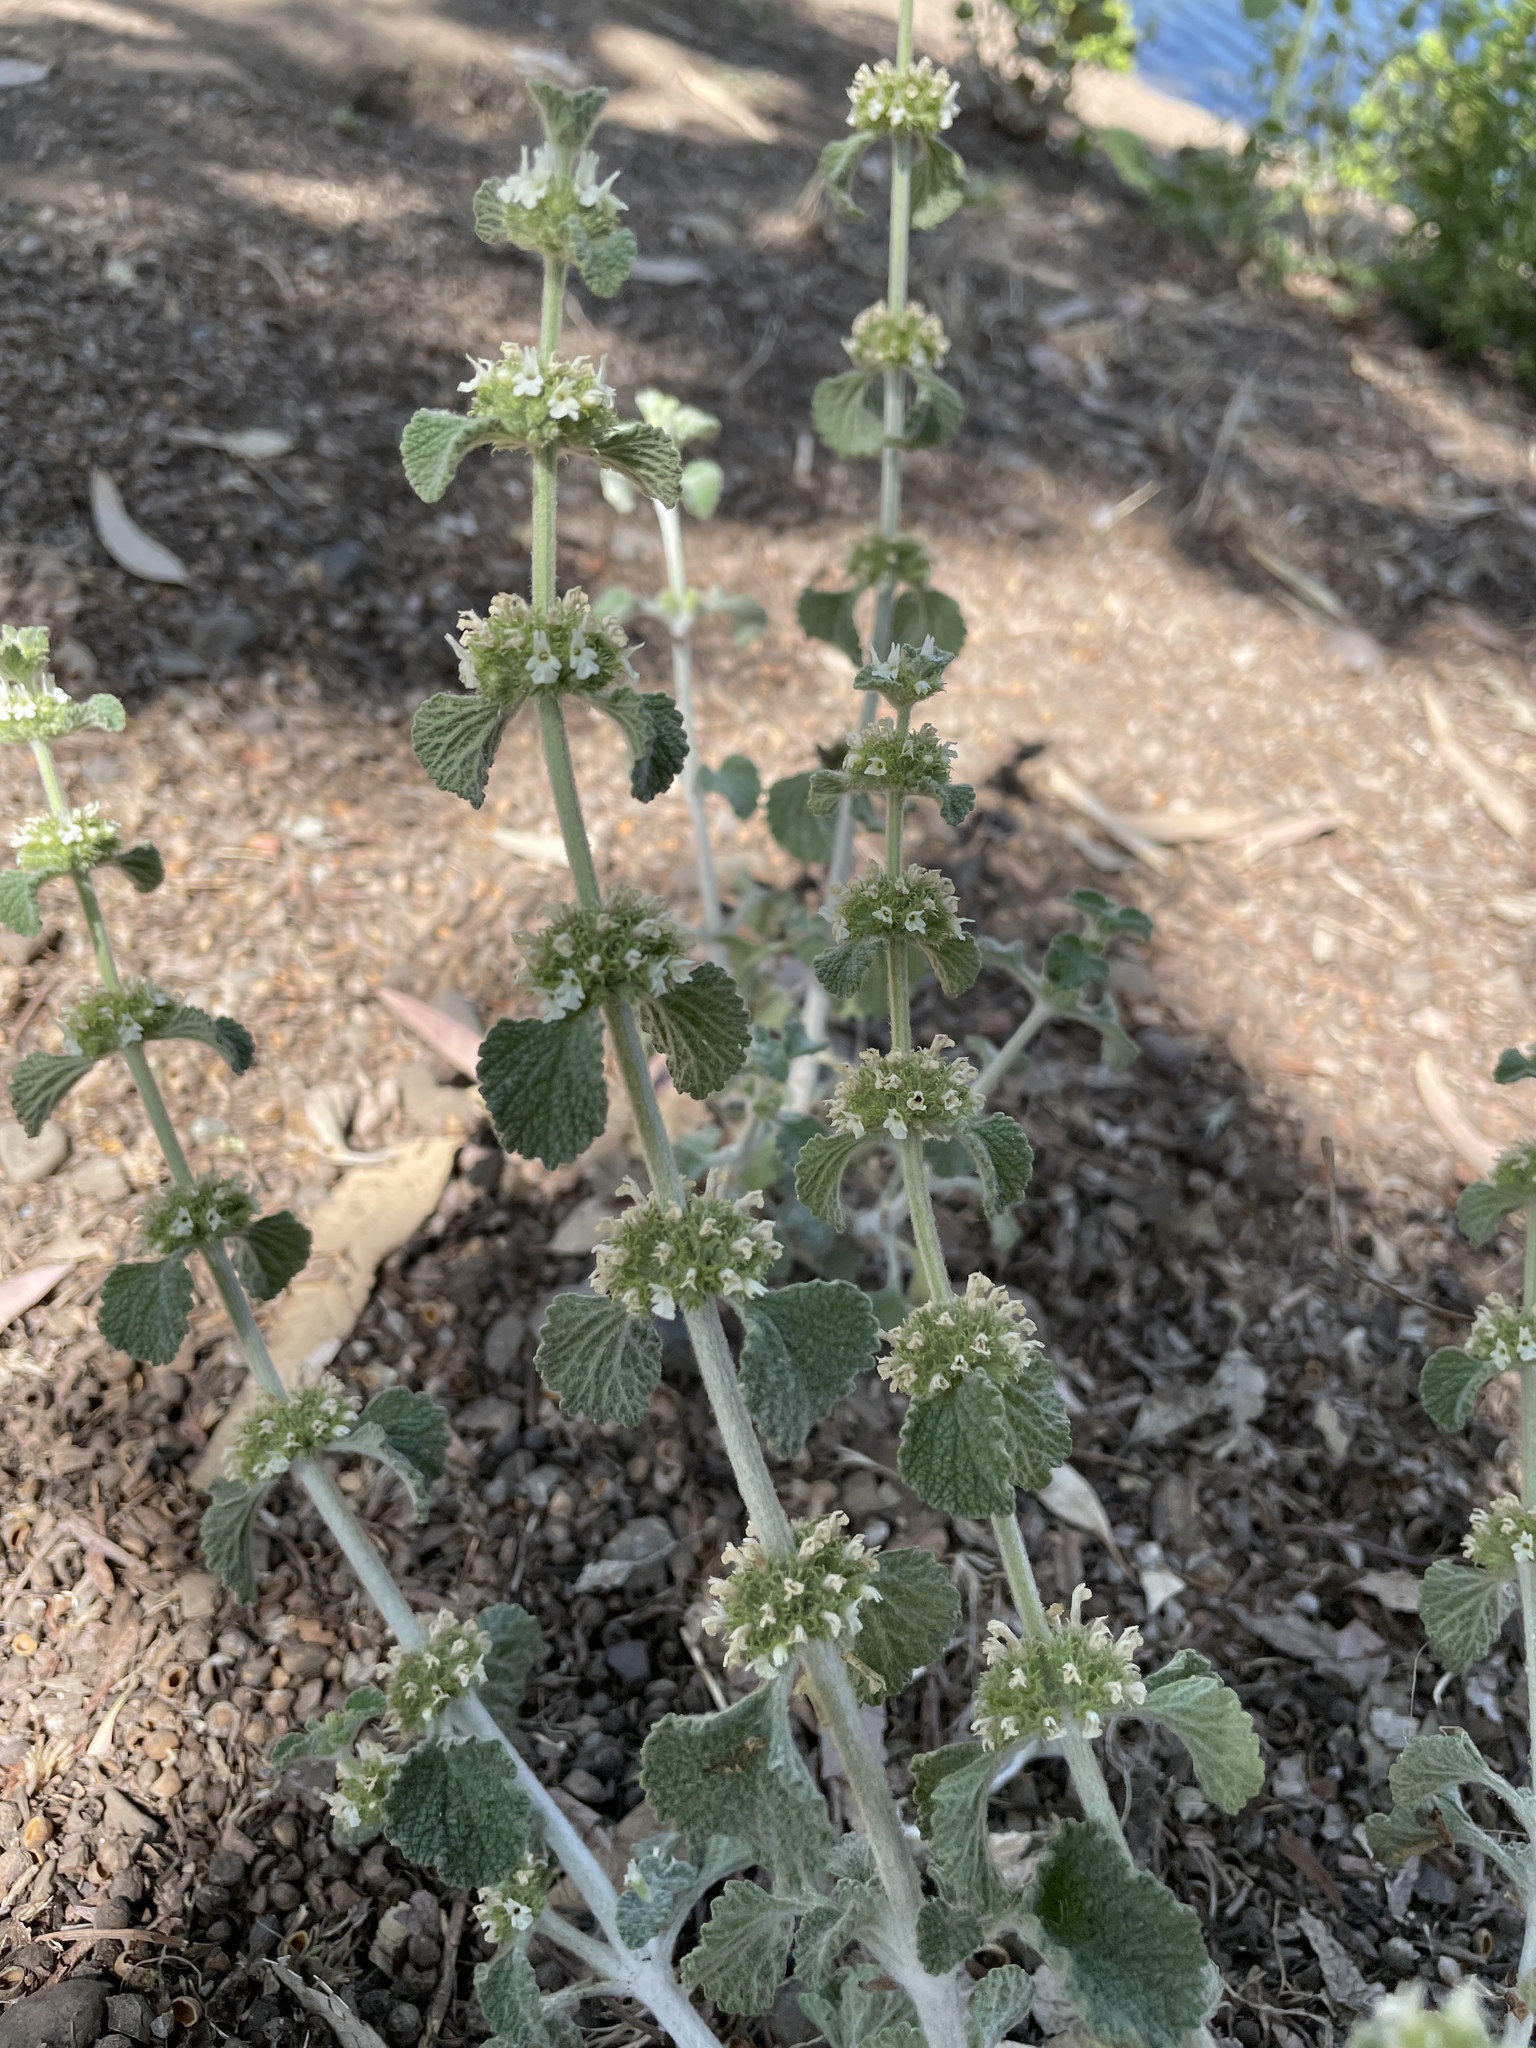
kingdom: Plantae
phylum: Tracheophyta
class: Magnoliopsida
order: Lamiales
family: Lamiaceae
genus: Marrubium
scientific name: Marrubium vulgare
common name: Horehound
